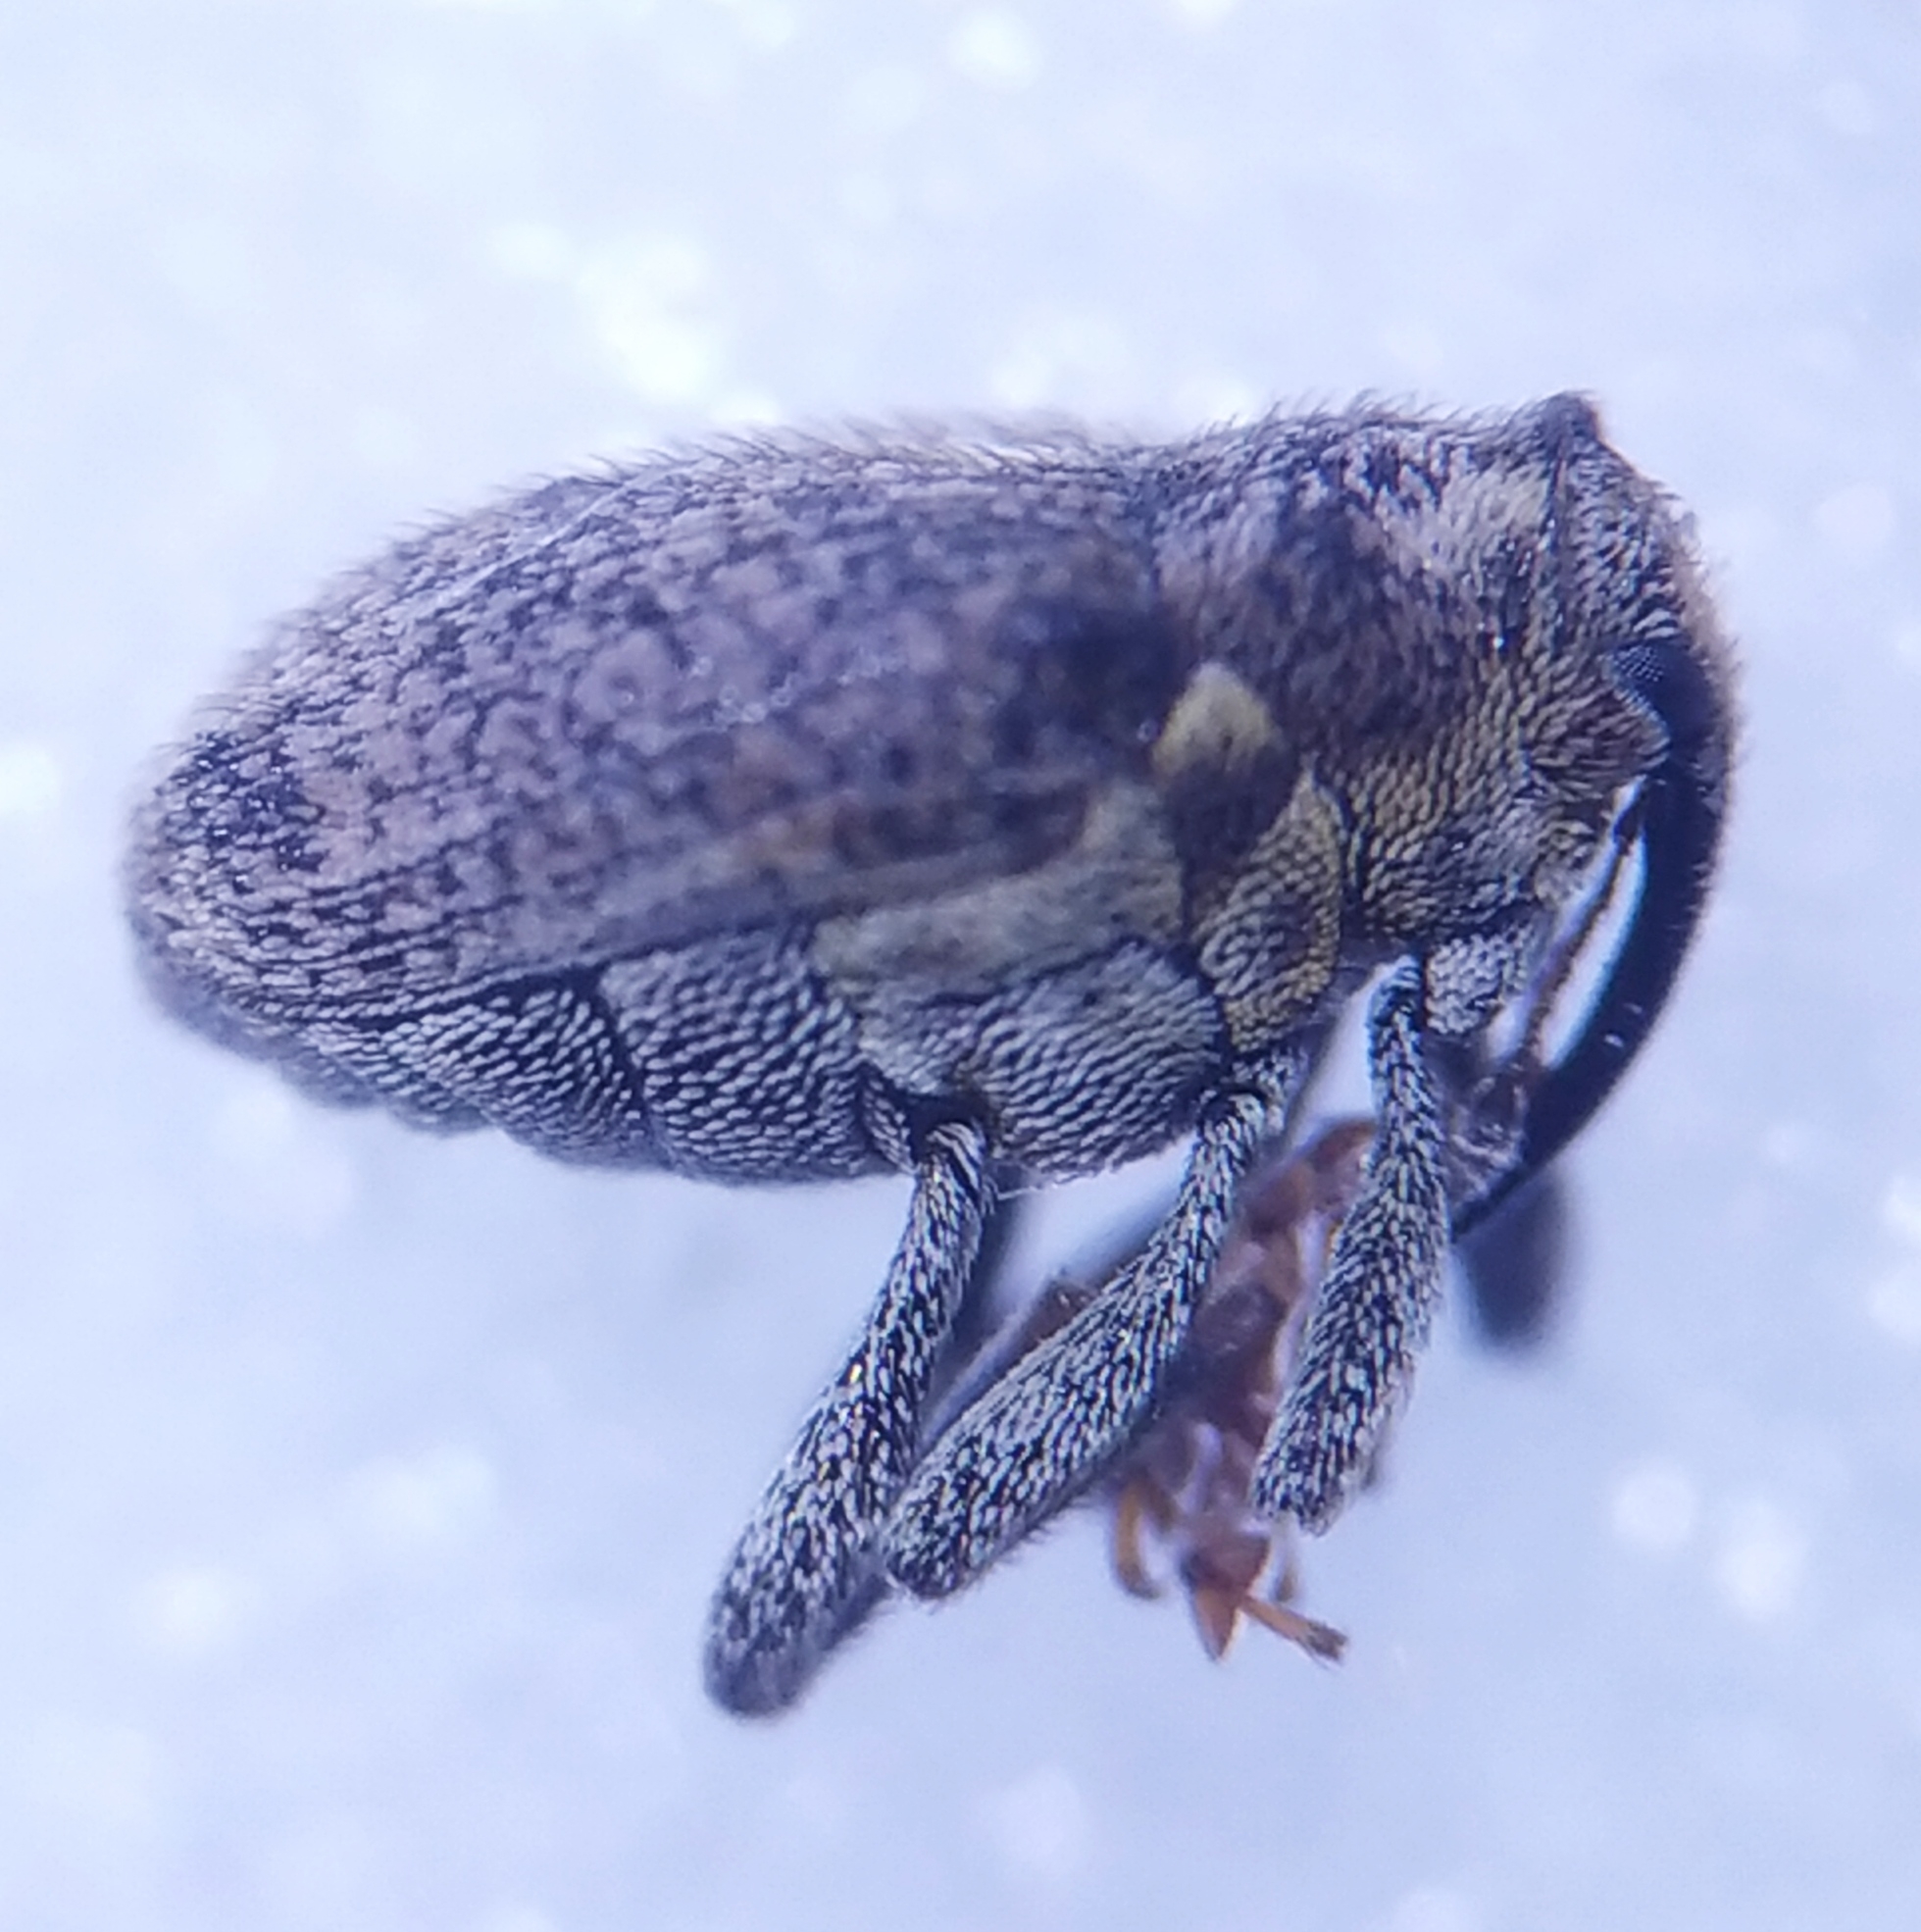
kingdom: Animalia
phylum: Arthropoda
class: Insecta
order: Coleoptera
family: Curculionidae
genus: Ceutorhynchus
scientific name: Ceutorhynchus pallidactylus
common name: Cabbage stem weavil
